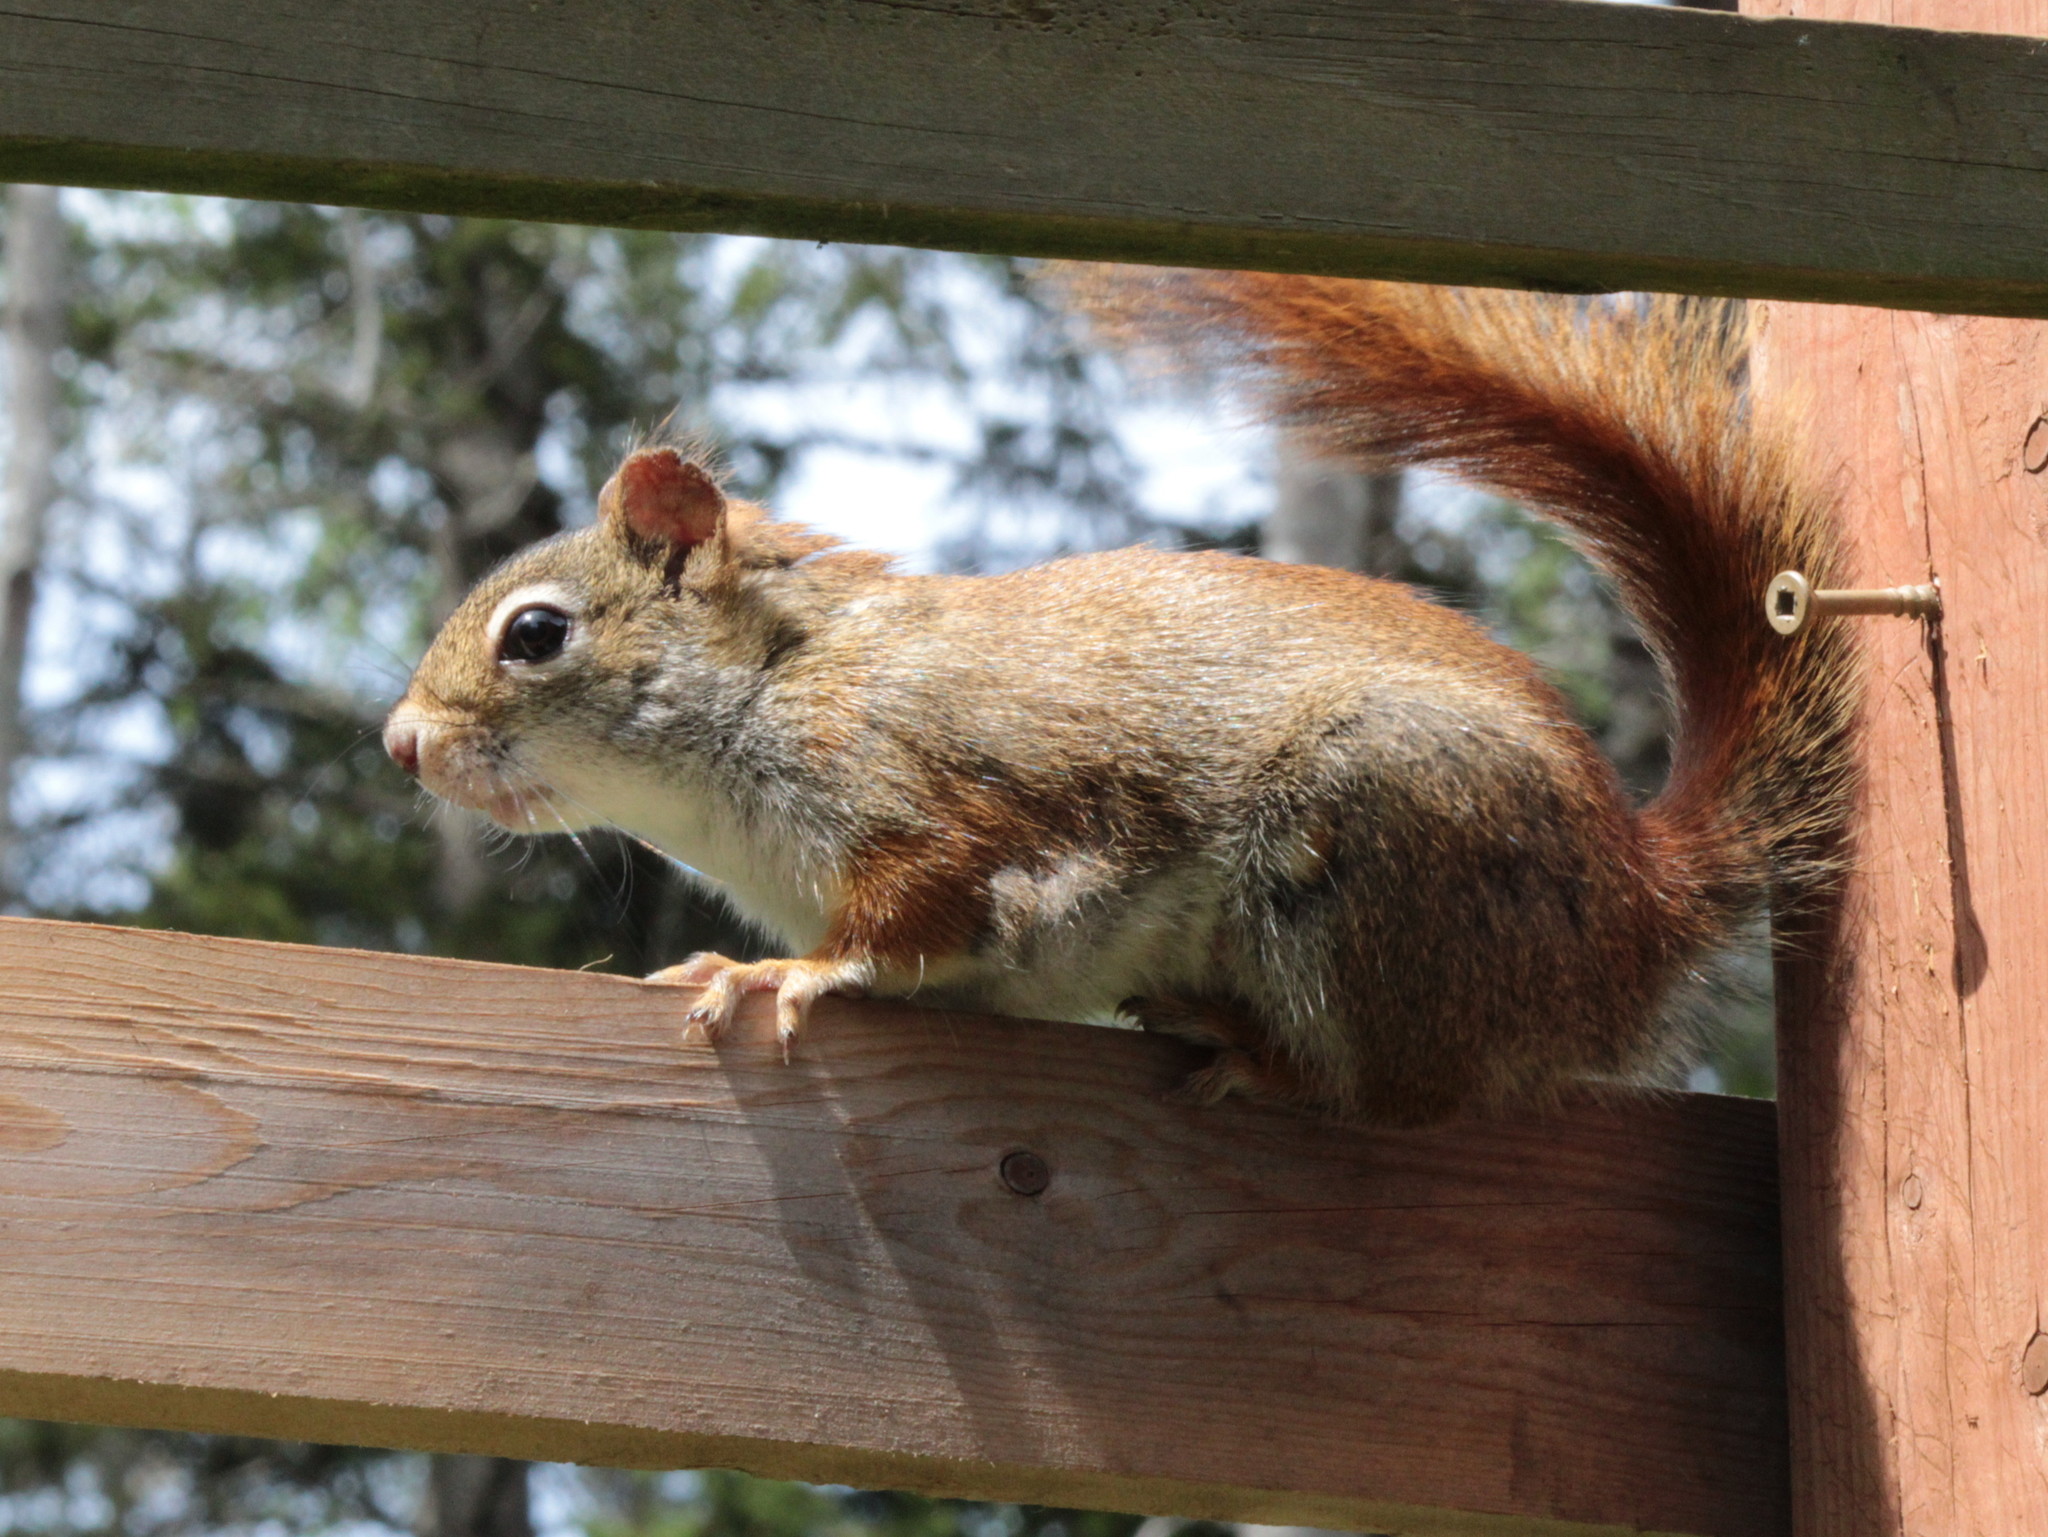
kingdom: Animalia
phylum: Chordata
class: Mammalia
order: Rodentia
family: Sciuridae
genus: Tamiasciurus
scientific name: Tamiasciurus hudsonicus
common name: Red squirrel
